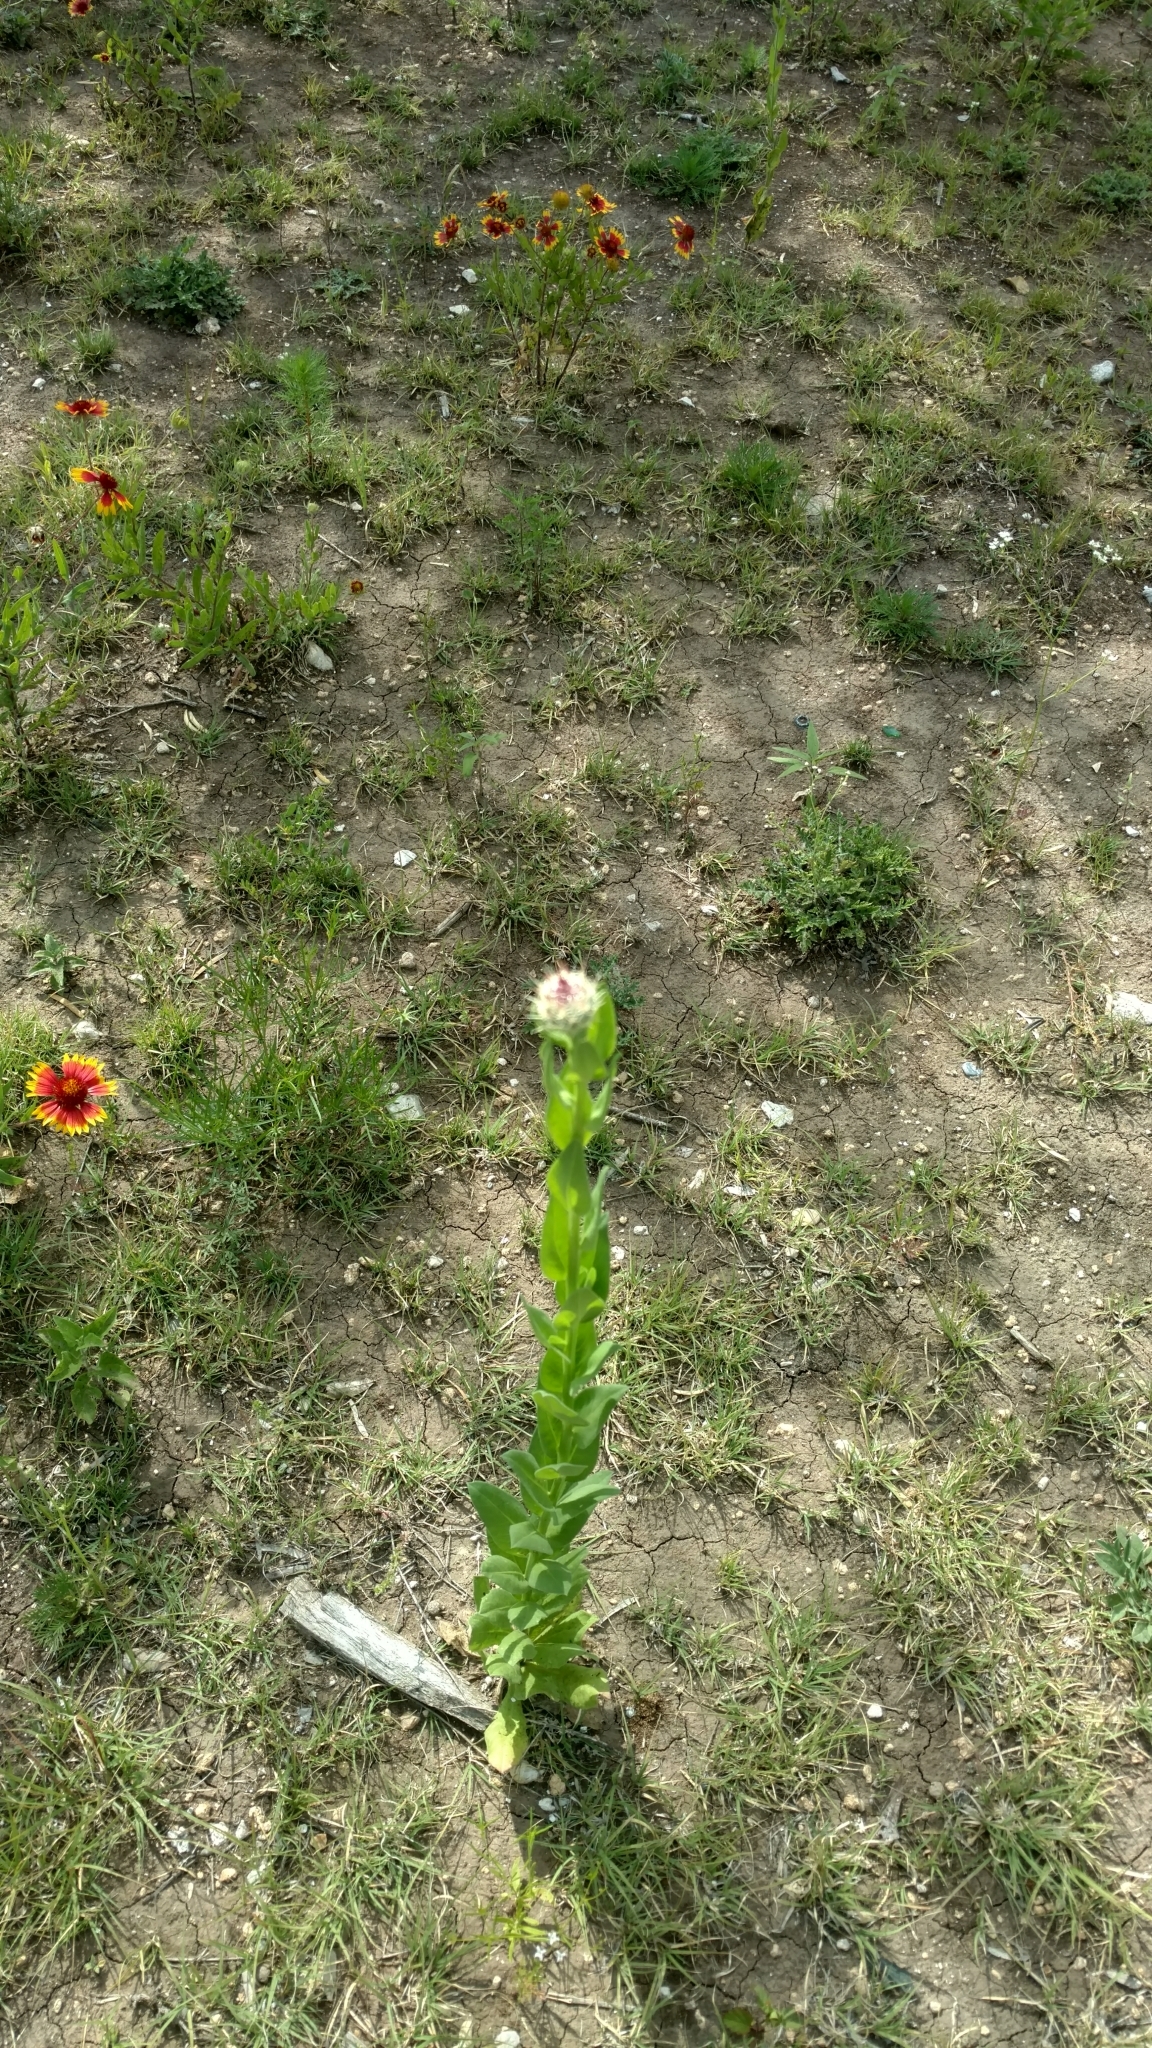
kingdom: Plantae
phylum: Tracheophyta
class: Magnoliopsida
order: Asterales
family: Asteraceae
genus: Plectocephalus
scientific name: Plectocephalus americanus
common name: American basket-flower
